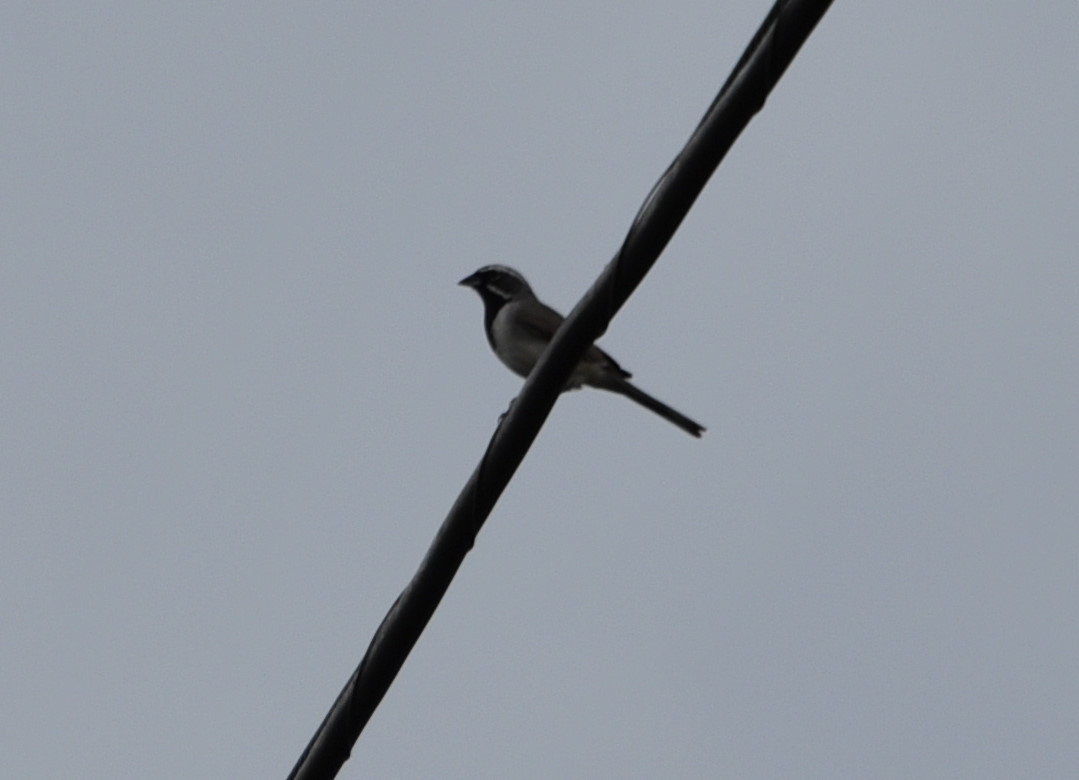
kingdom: Animalia
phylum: Chordata
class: Aves
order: Passeriformes
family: Passerellidae
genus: Amphispiza
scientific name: Amphispiza bilineata
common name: Black-throated sparrow
